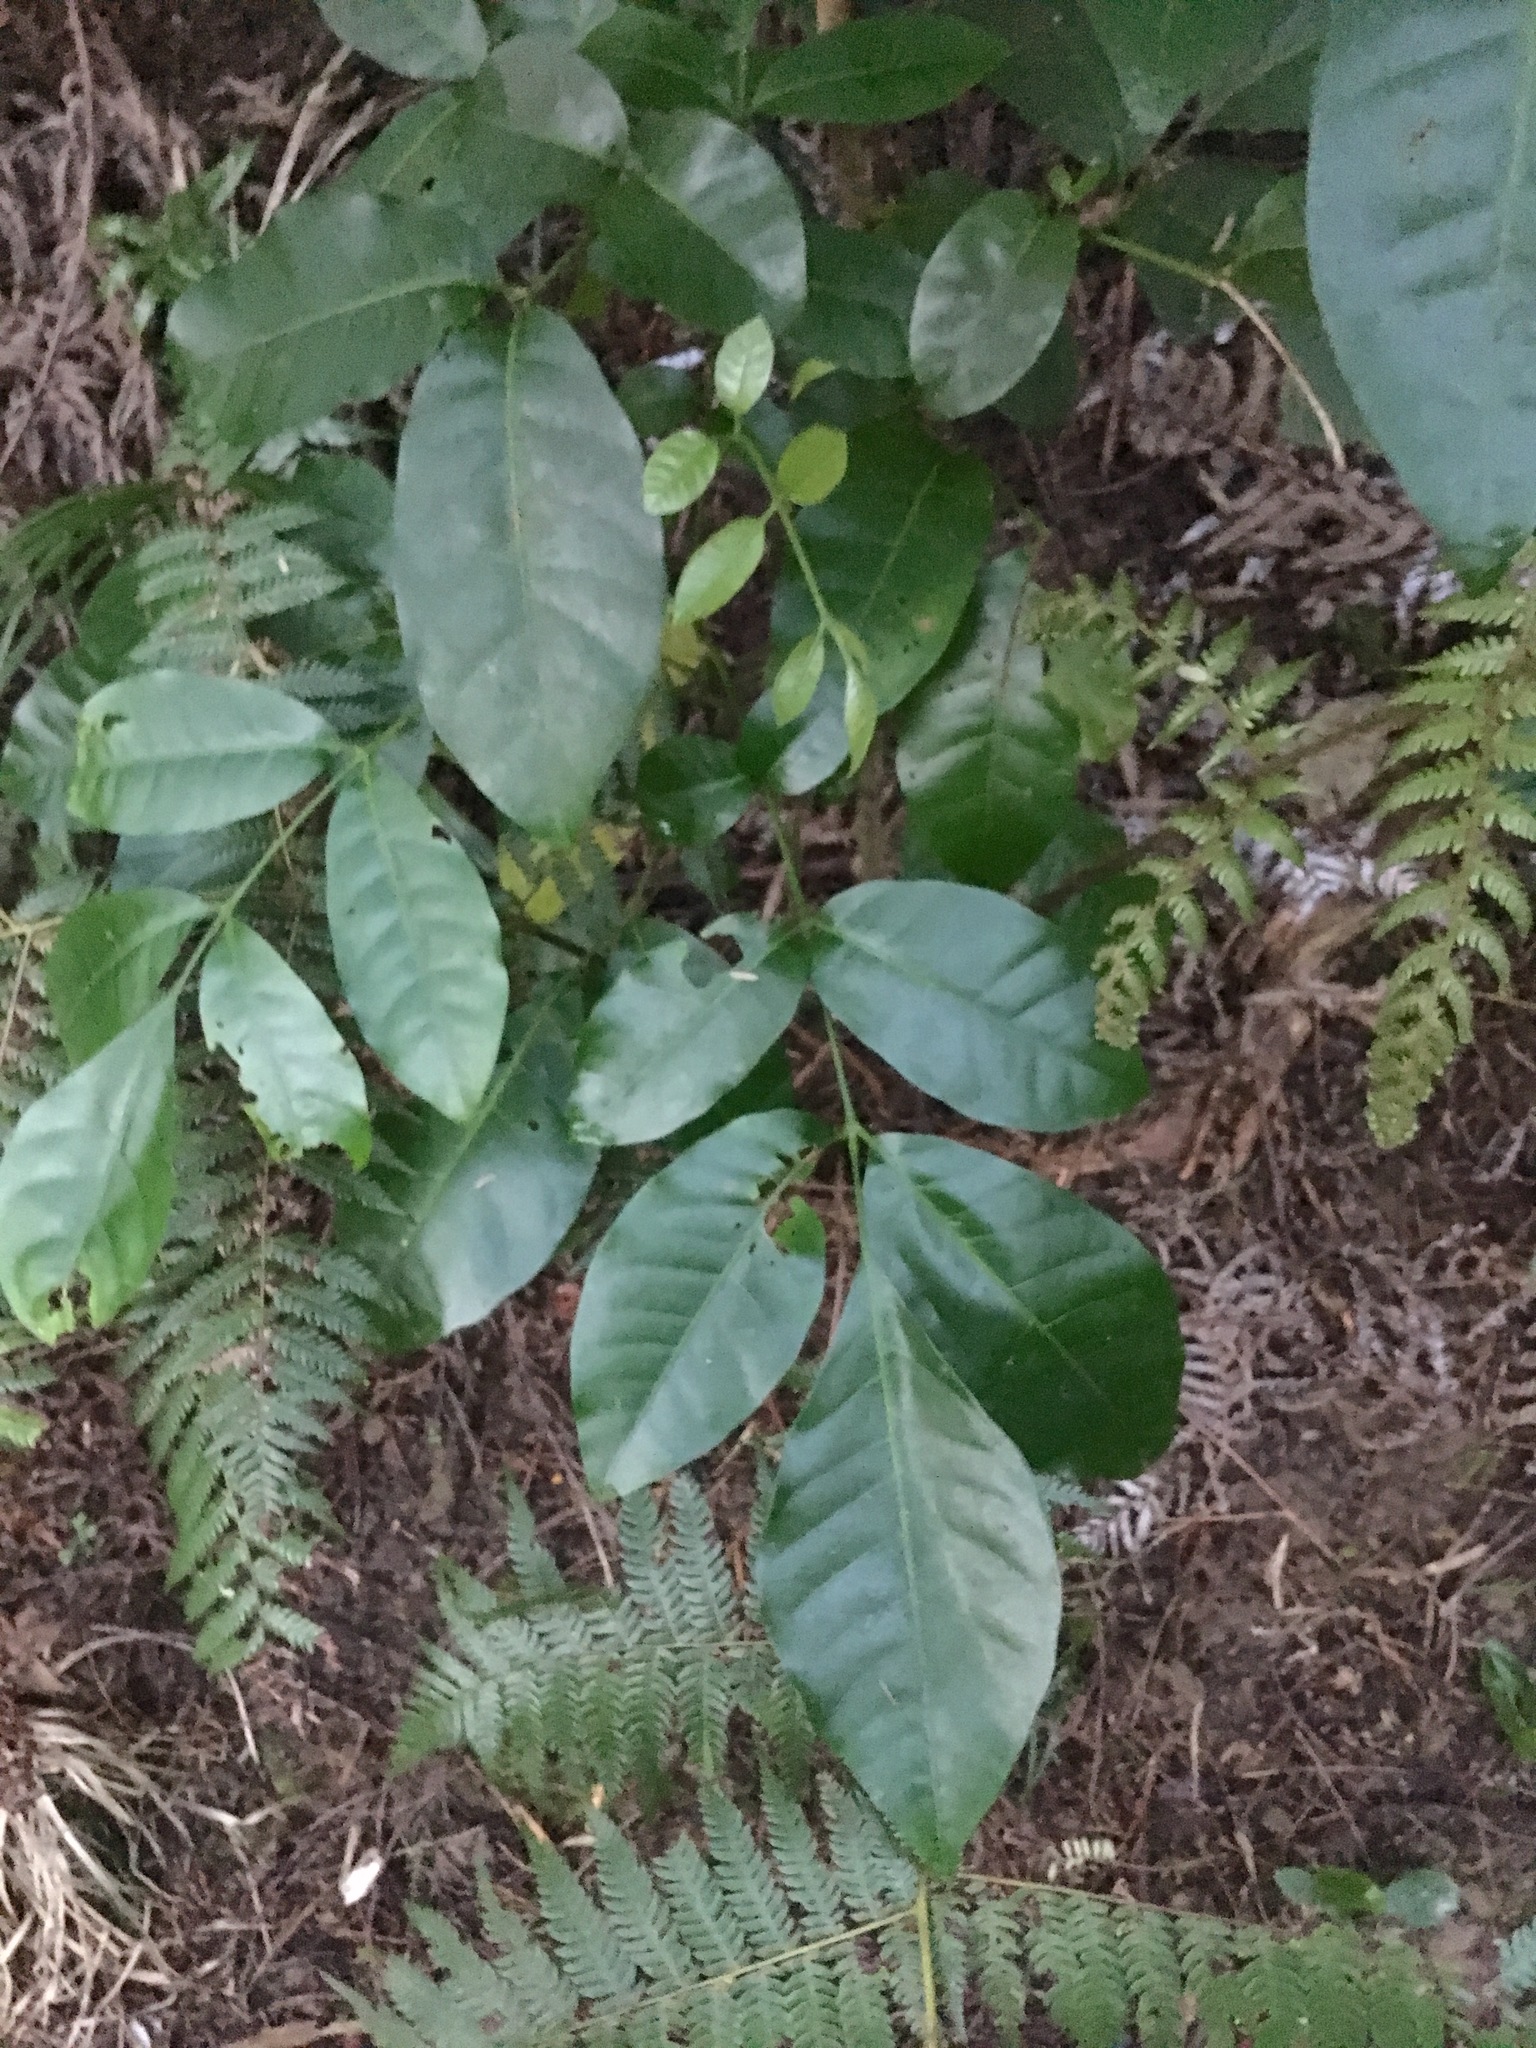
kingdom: Plantae
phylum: Tracheophyta
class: Magnoliopsida
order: Sapindales
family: Meliaceae
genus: Didymocheton
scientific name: Didymocheton spectabilis
